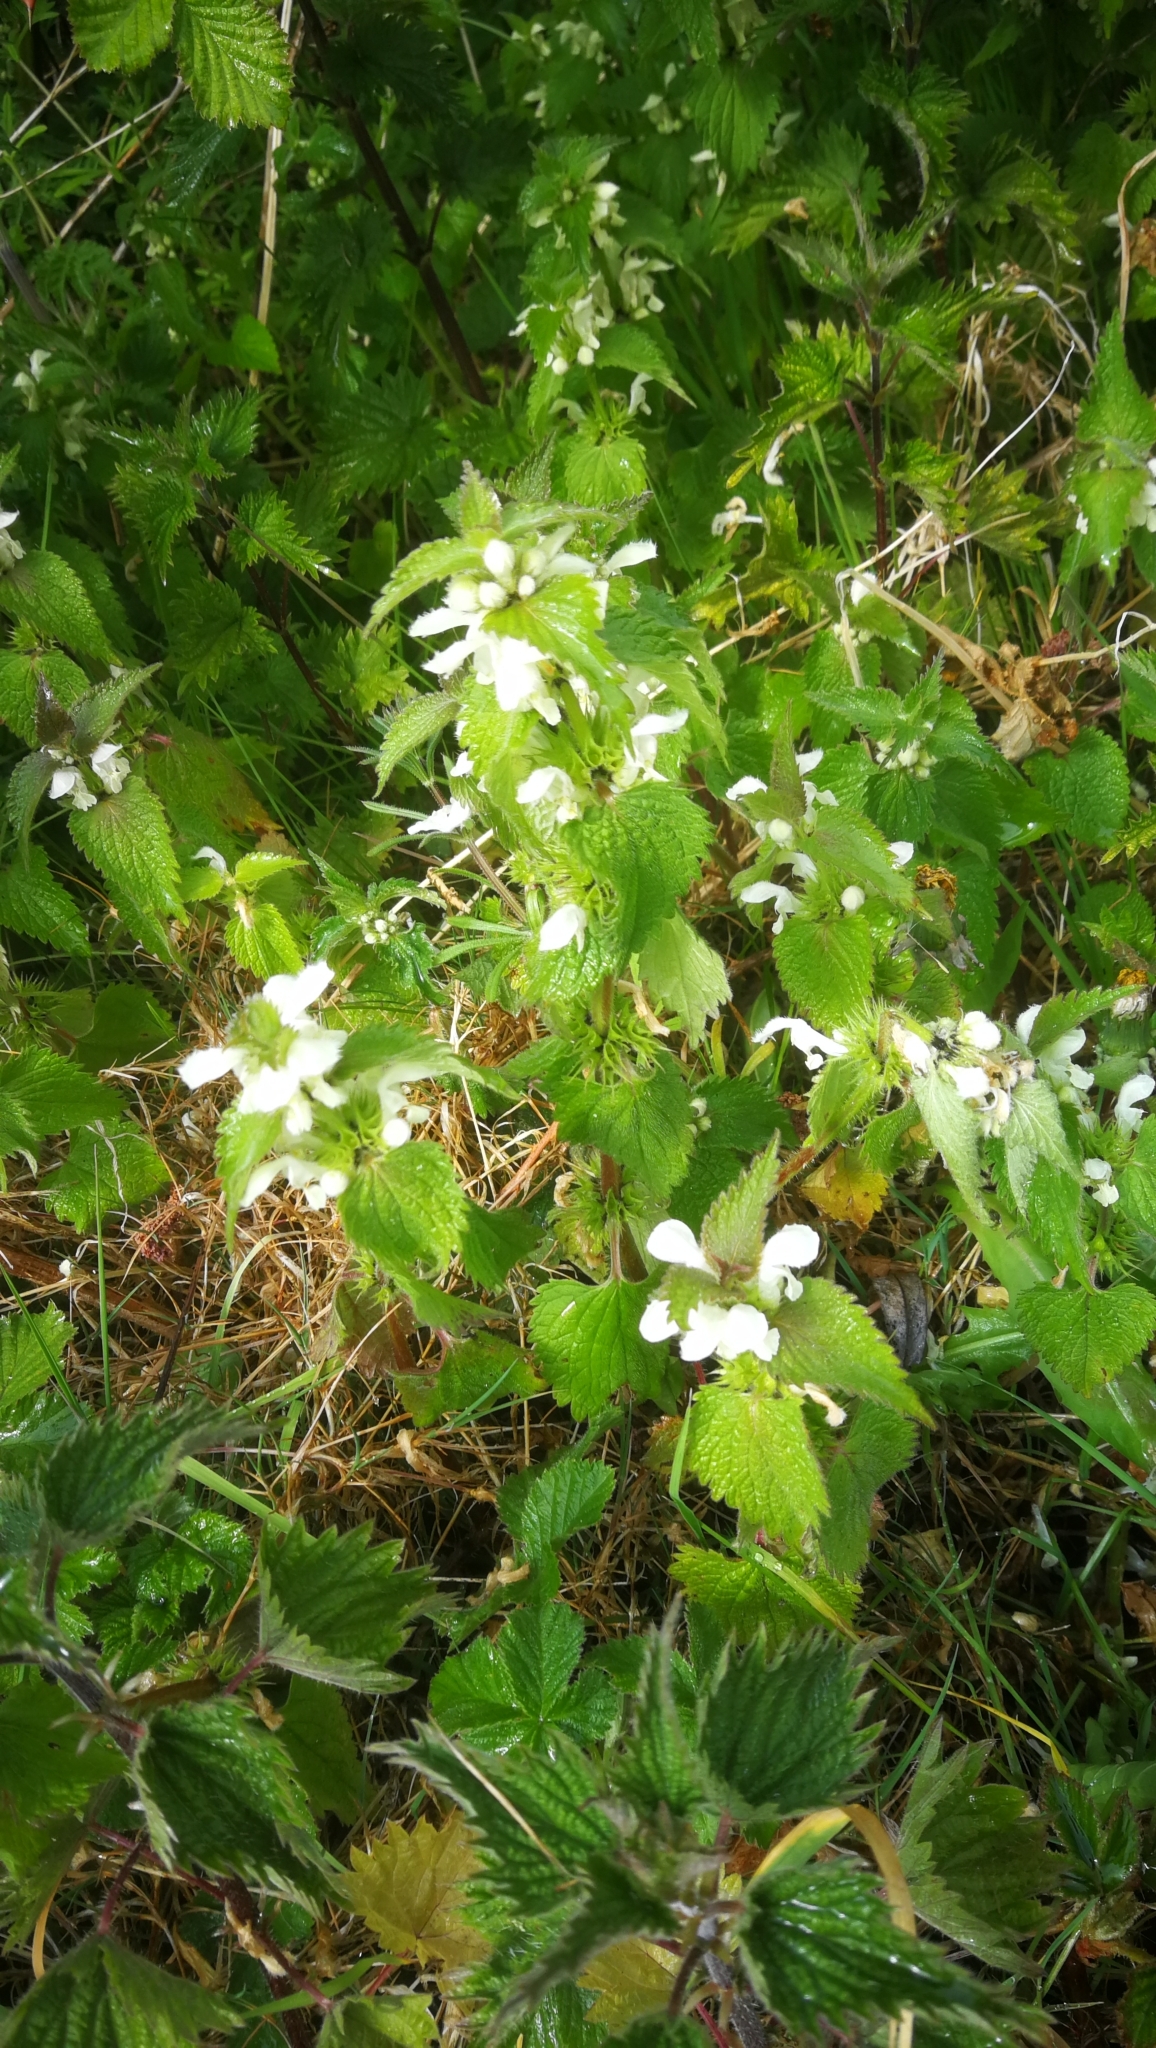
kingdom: Plantae
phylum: Tracheophyta
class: Magnoliopsida
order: Lamiales
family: Lamiaceae
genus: Lamium
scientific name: Lamium album
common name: White dead-nettle
